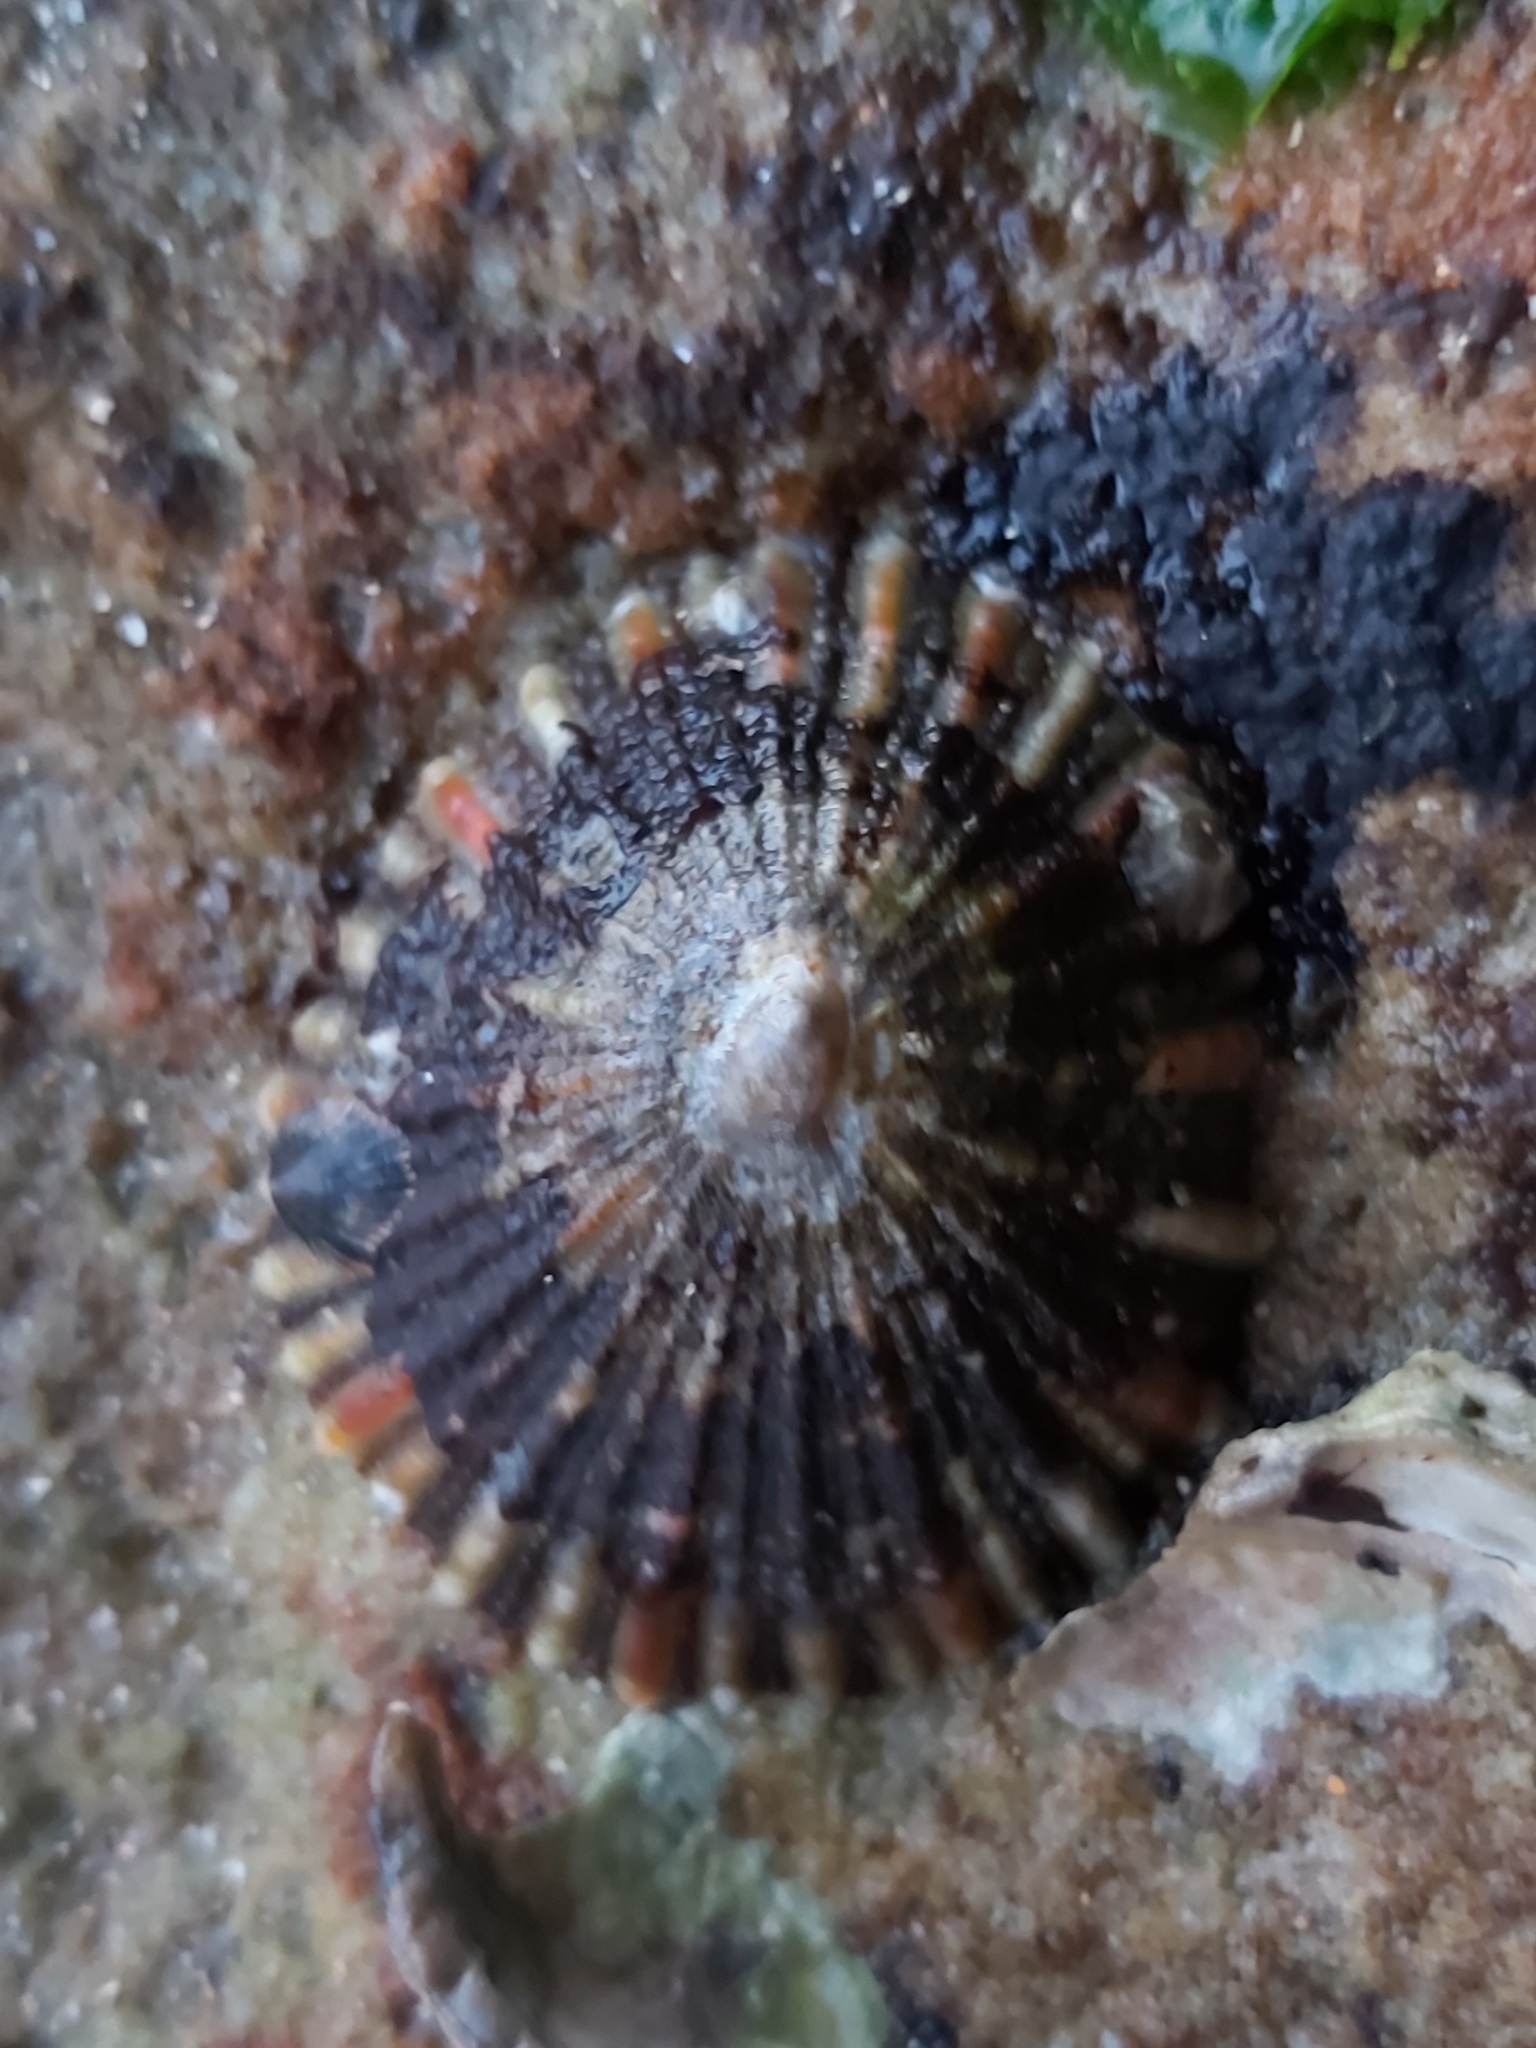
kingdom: Animalia
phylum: Mollusca
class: Gastropoda
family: Nacellidae
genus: Cellana
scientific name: Cellana tramoserica
